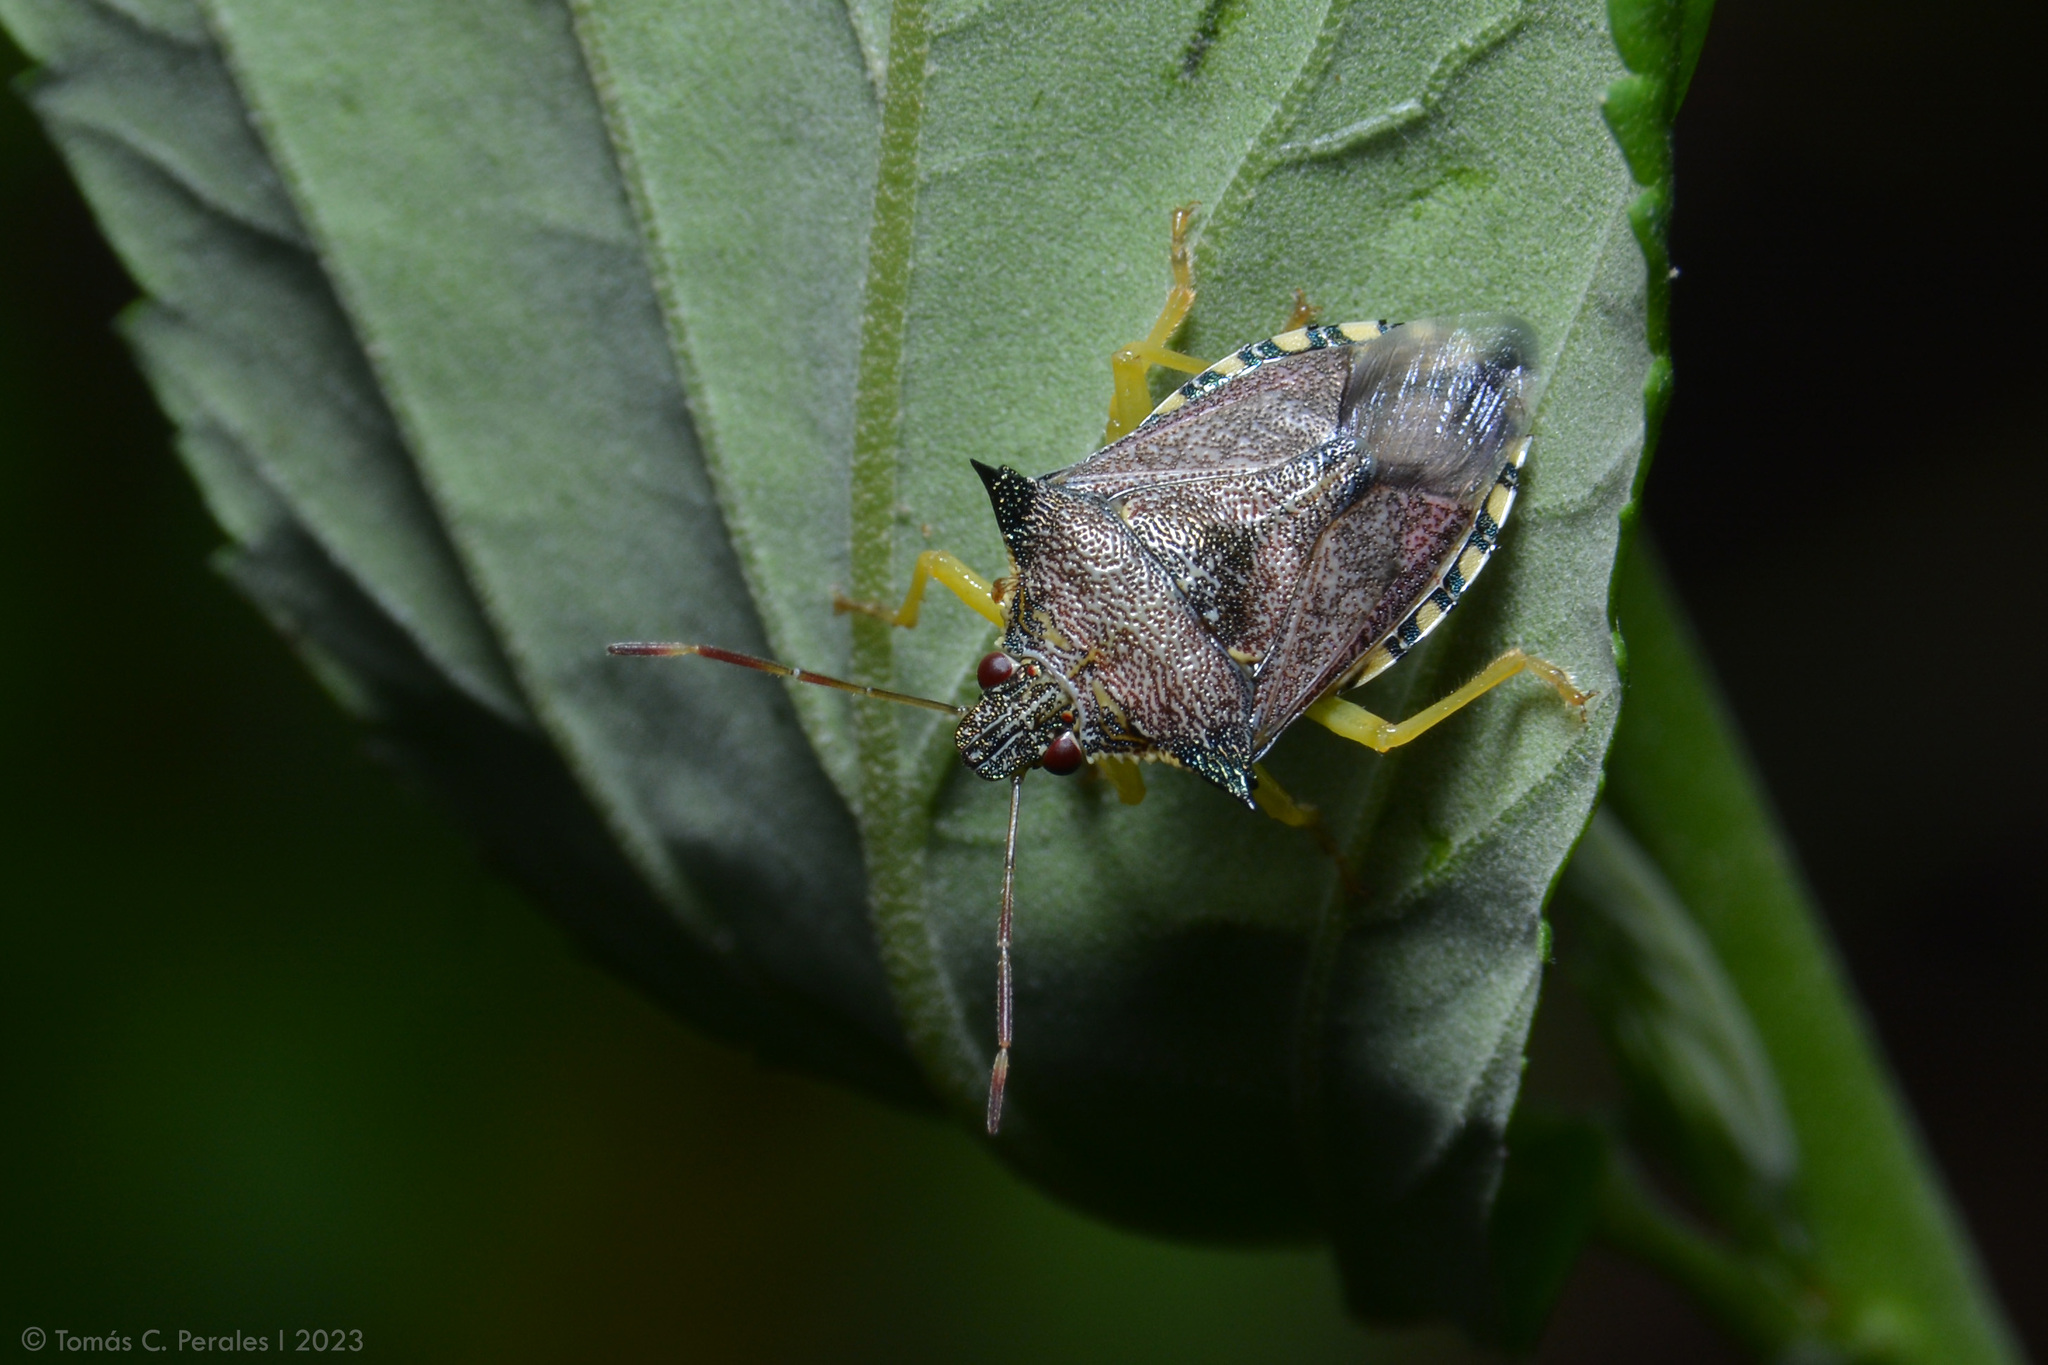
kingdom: Animalia
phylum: Arthropoda
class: Insecta
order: Hemiptera
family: Pentatomidae
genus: Podisus
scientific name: Podisus nigrispinus
